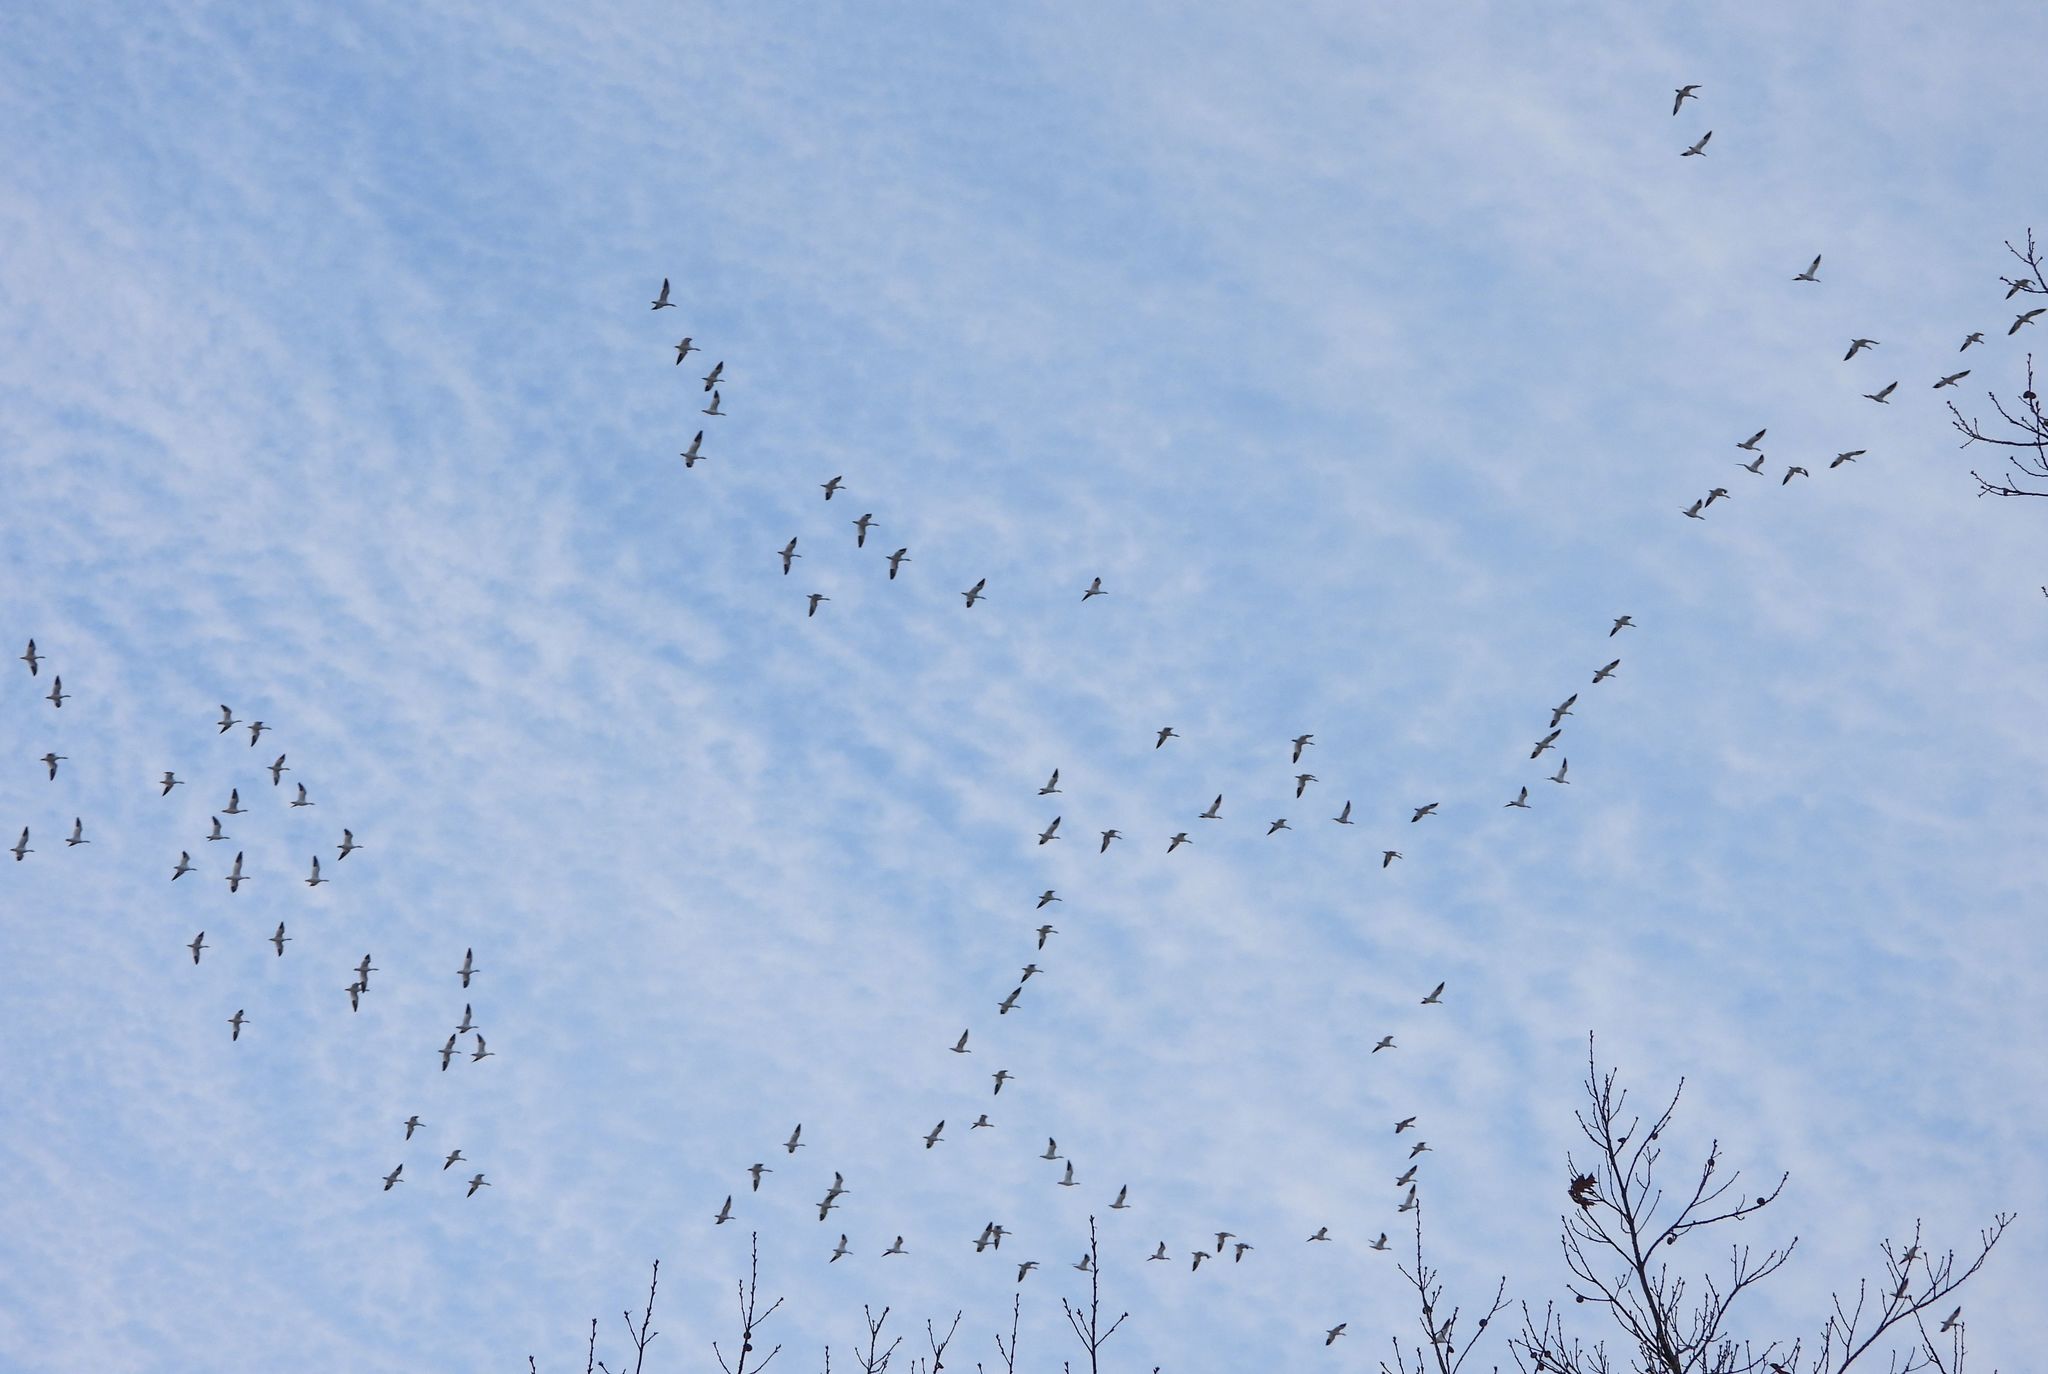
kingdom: Animalia
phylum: Chordata
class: Aves
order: Anseriformes
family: Anatidae
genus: Anser
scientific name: Anser caerulescens
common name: Snow goose
